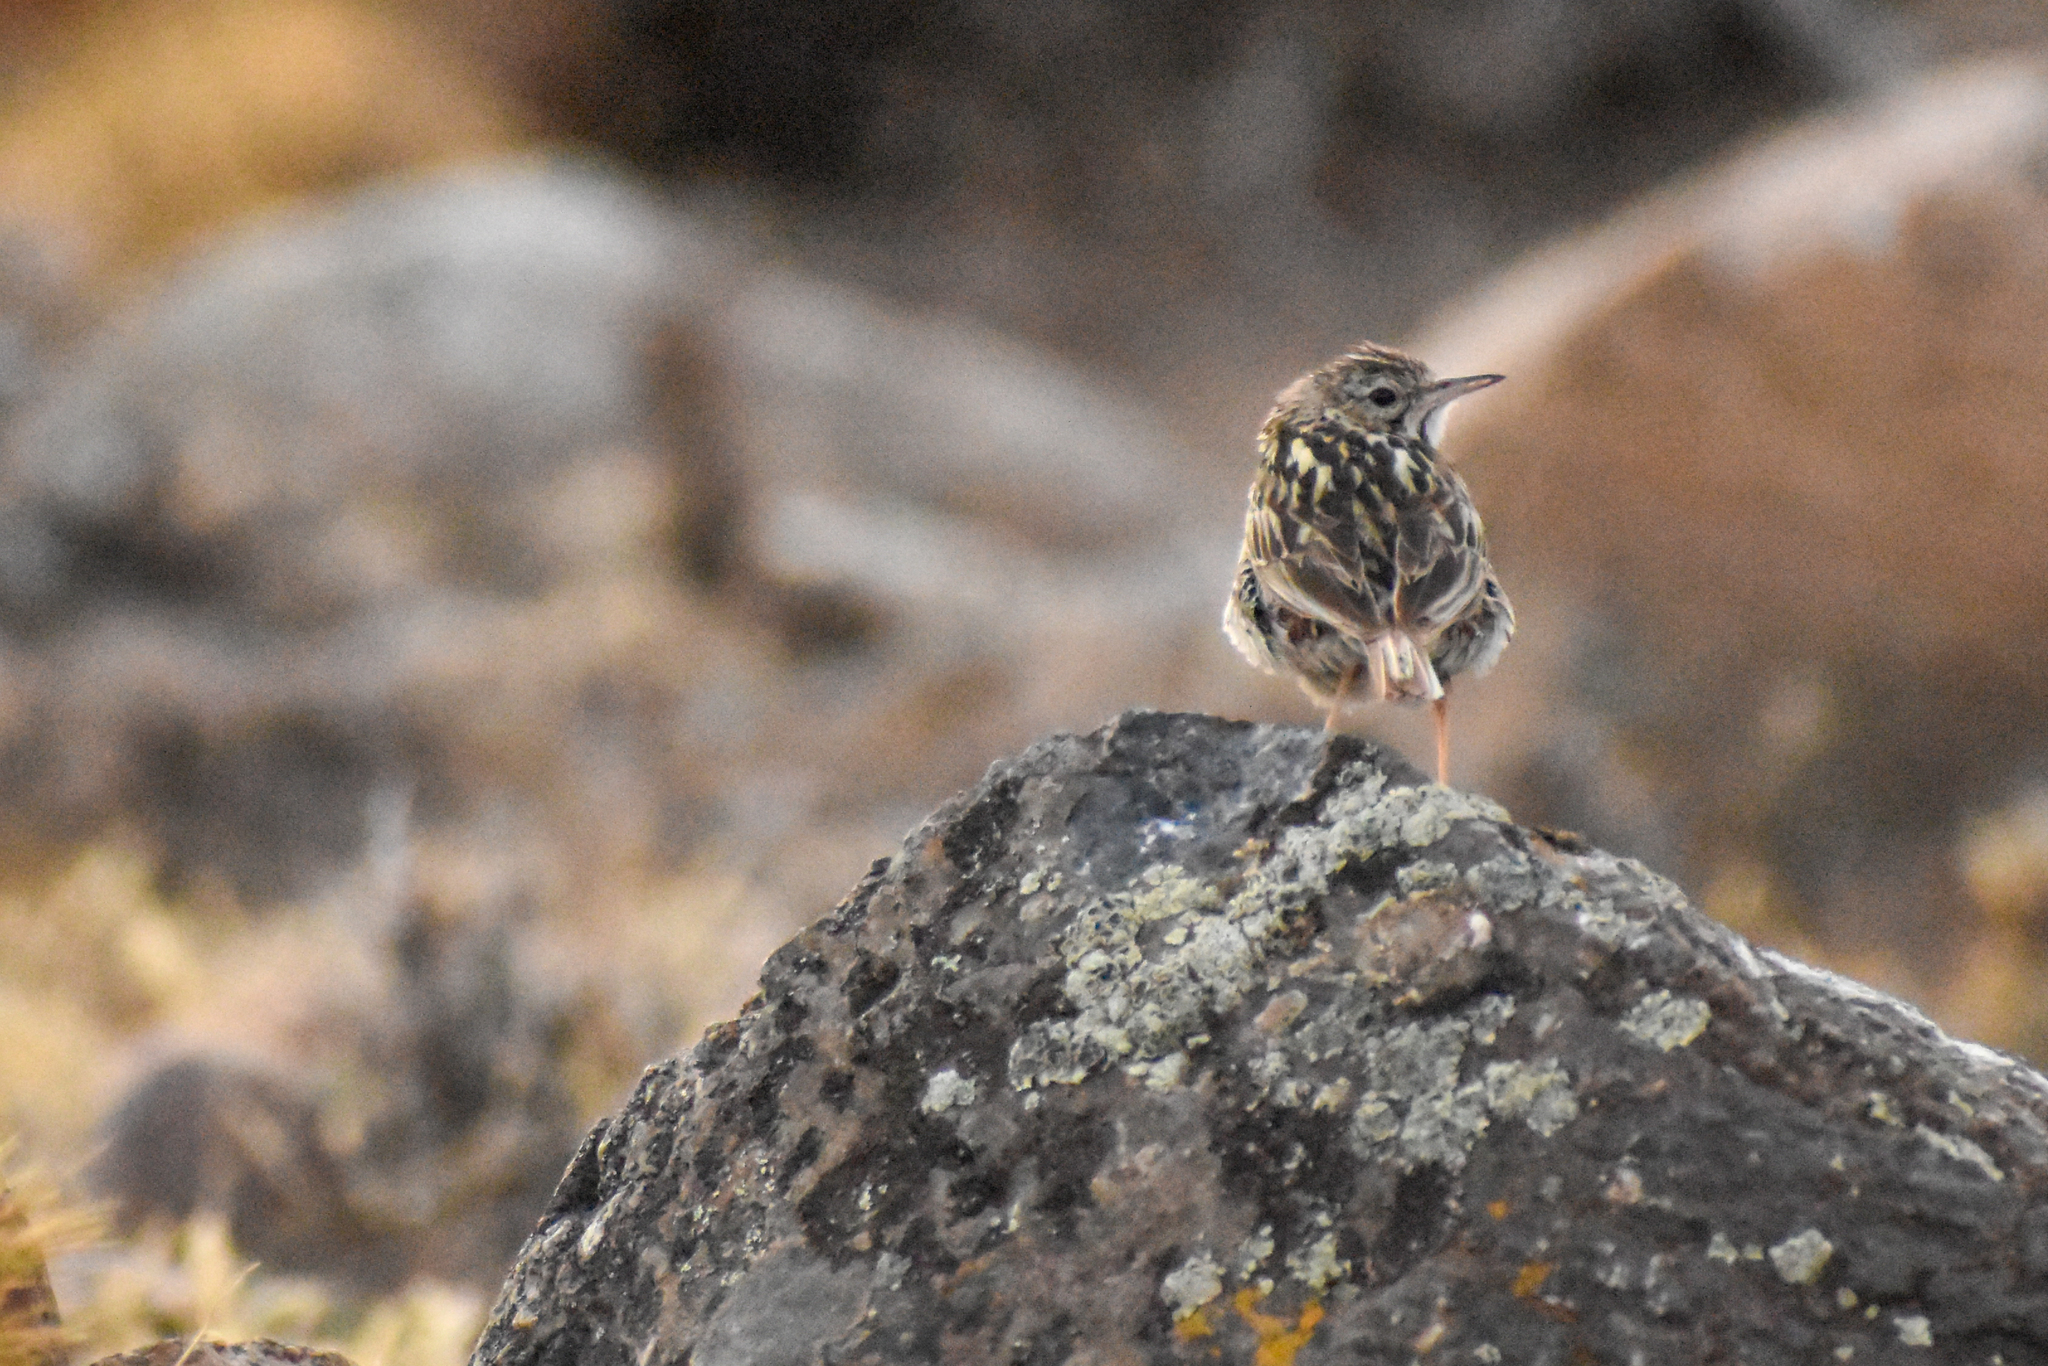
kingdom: Animalia
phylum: Chordata
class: Aves
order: Passeriformes
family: Motacillidae
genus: Anthus
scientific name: Anthus correndera
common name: Correndera pipit
